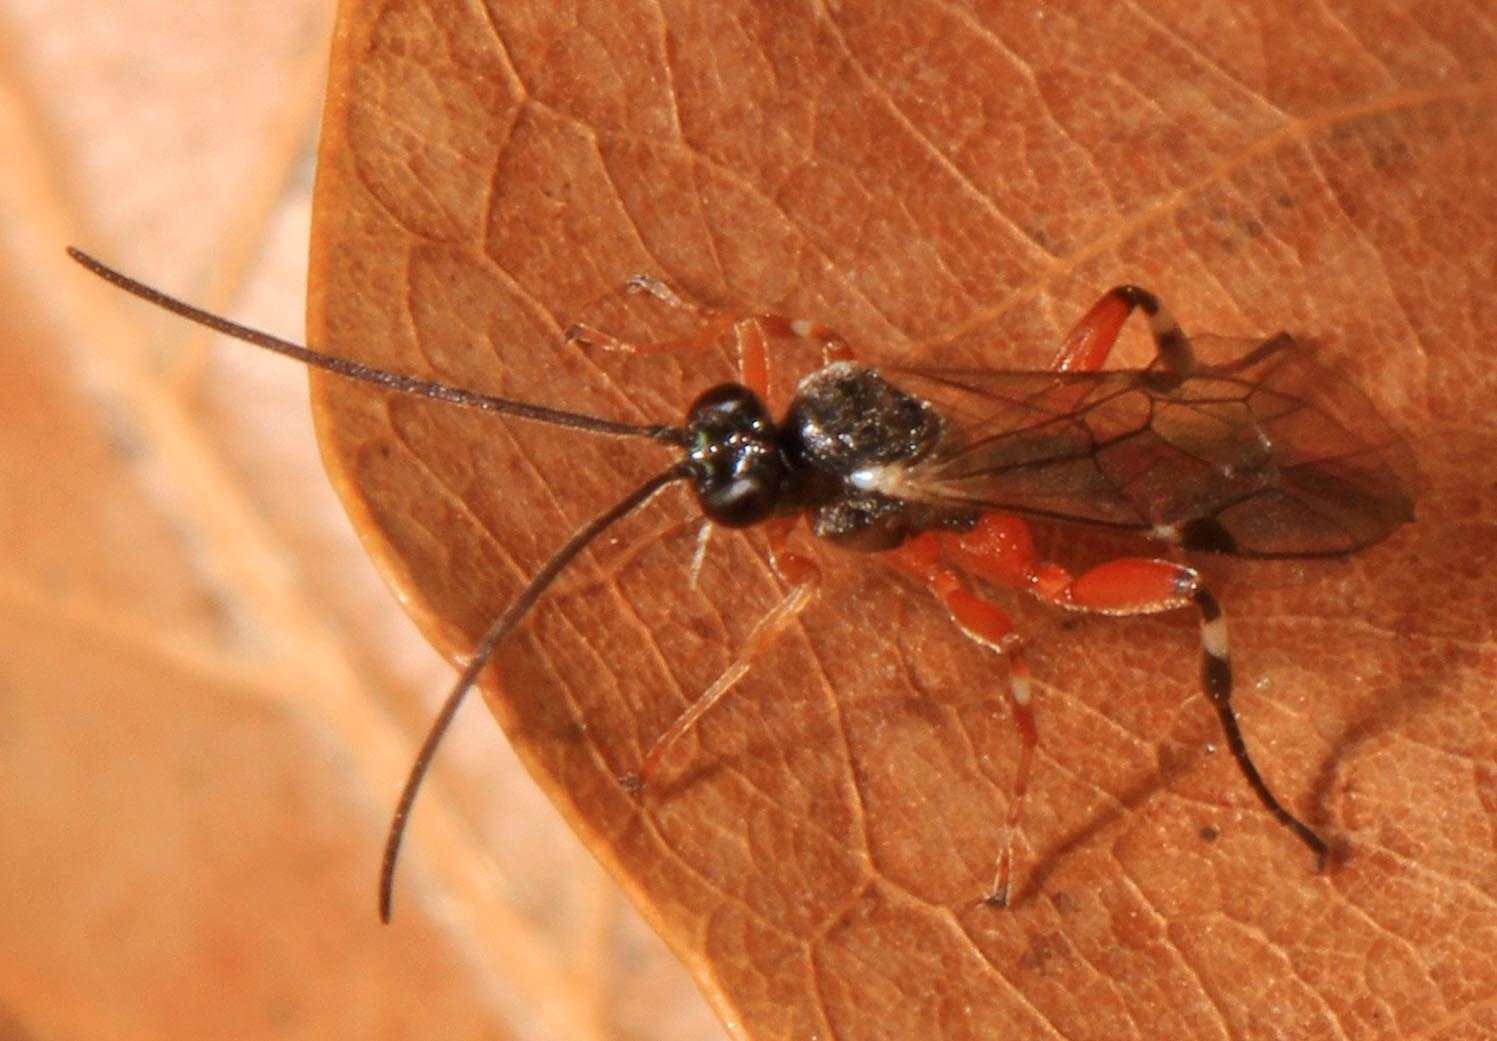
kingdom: Animalia
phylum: Arthropoda
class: Insecta
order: Hymenoptera
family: Ichneumonidae
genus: Itoplectis
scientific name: Itoplectis conquisitor
